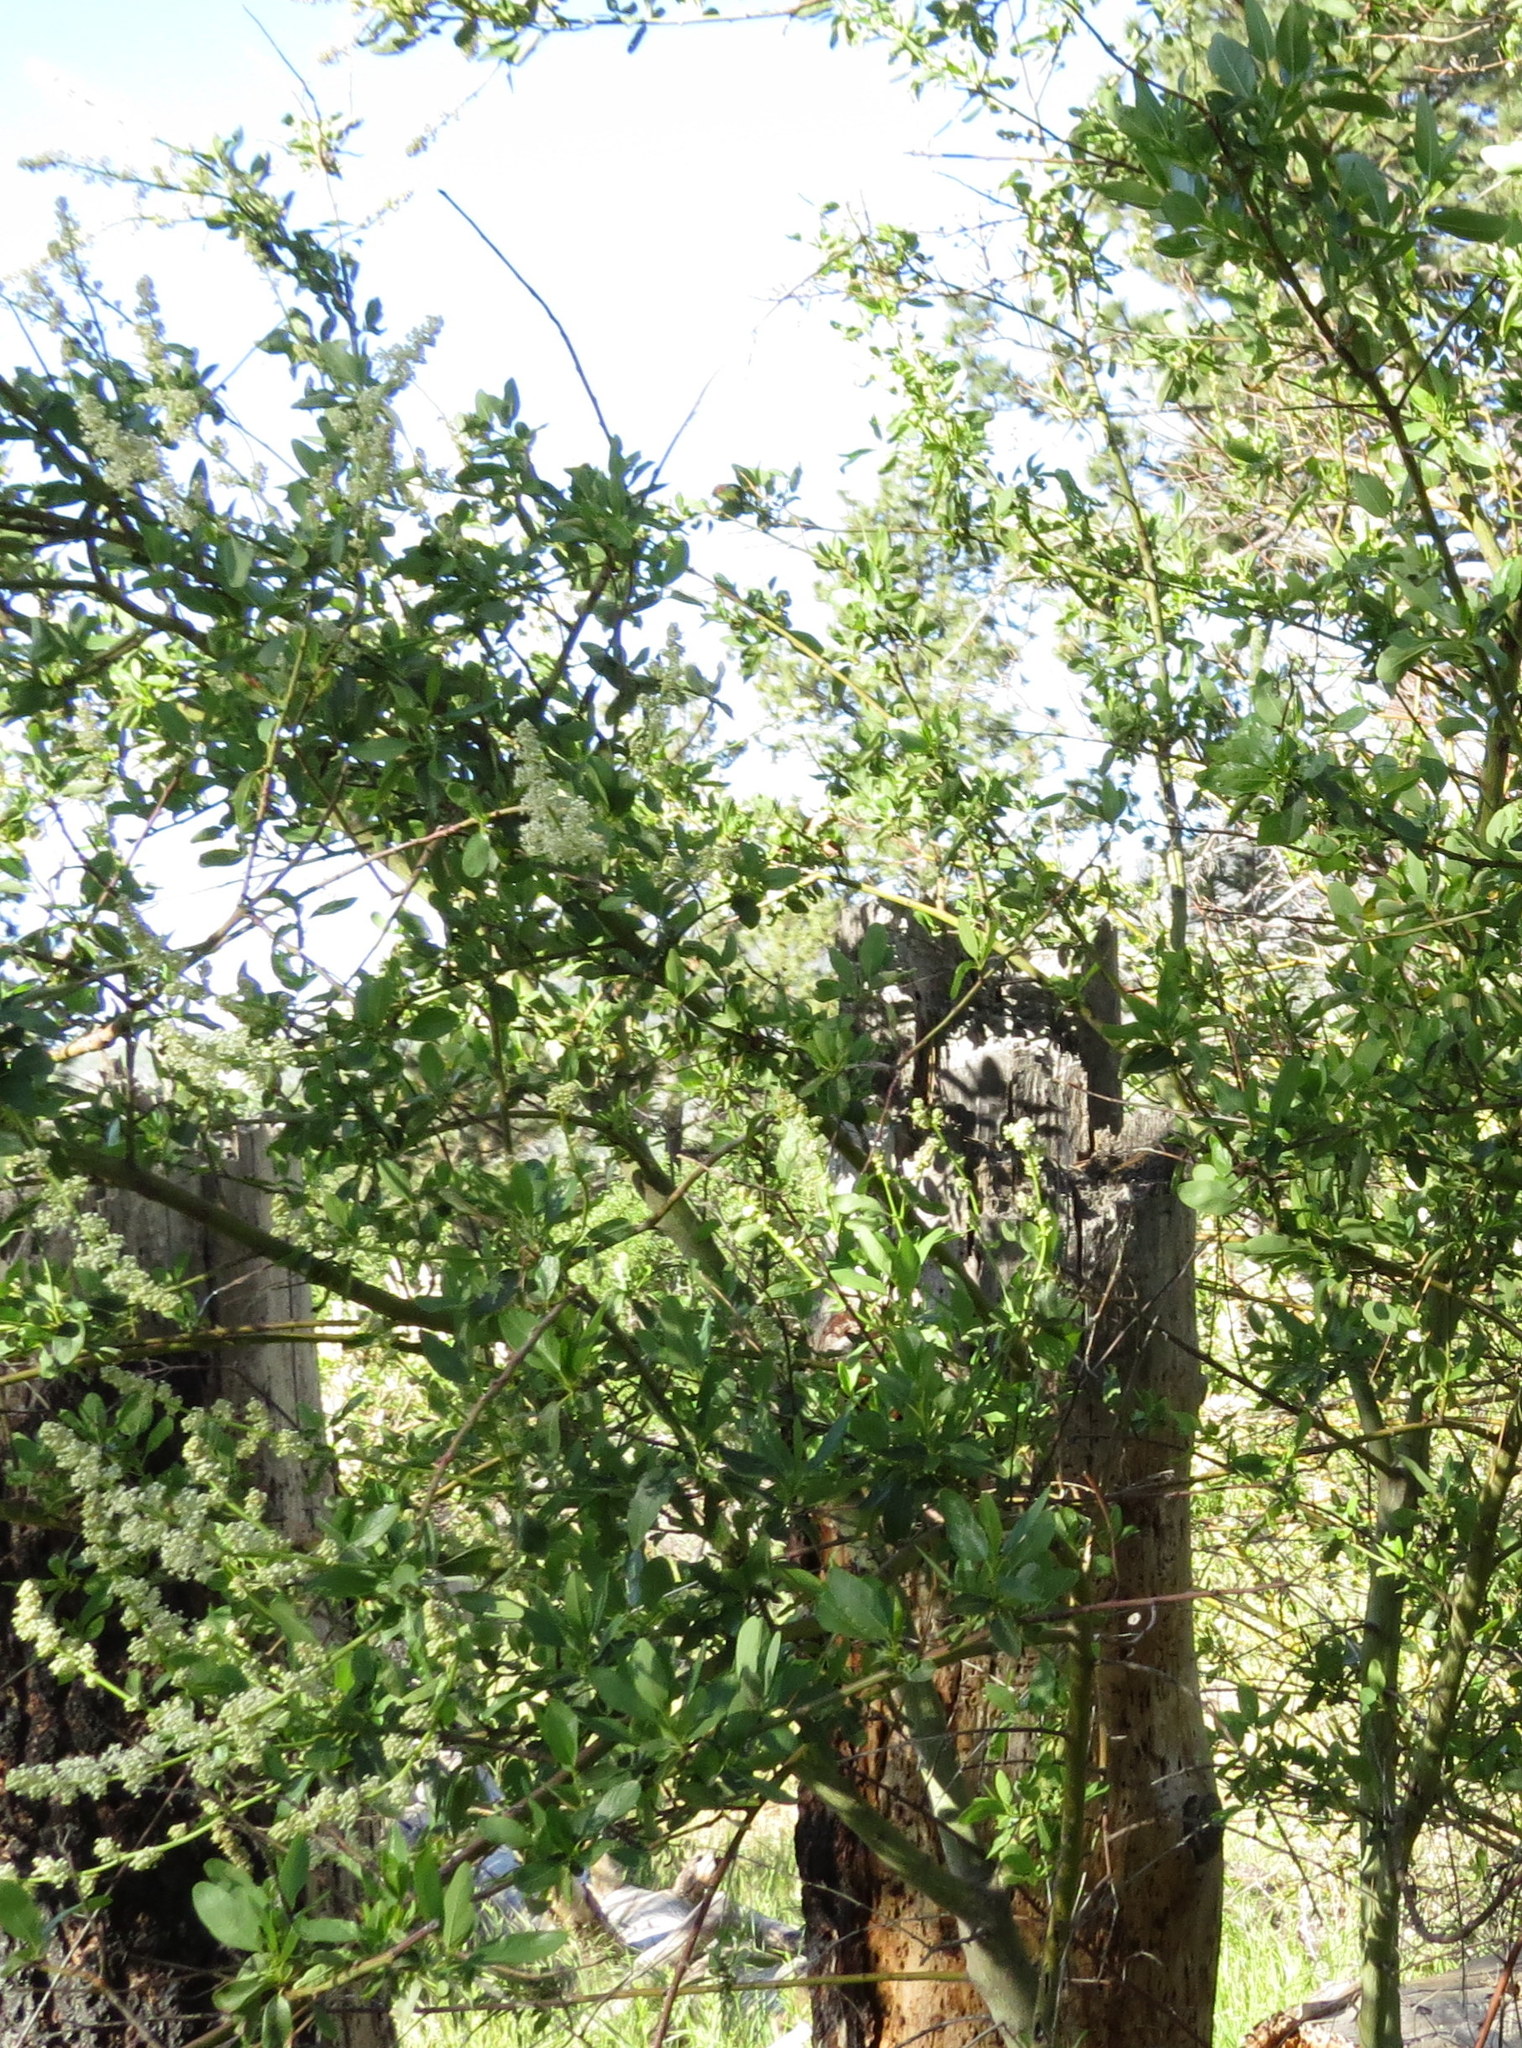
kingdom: Plantae
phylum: Tracheophyta
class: Magnoliopsida
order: Rosales
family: Rhamnaceae
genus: Ceanothus
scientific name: Ceanothus palmeri
